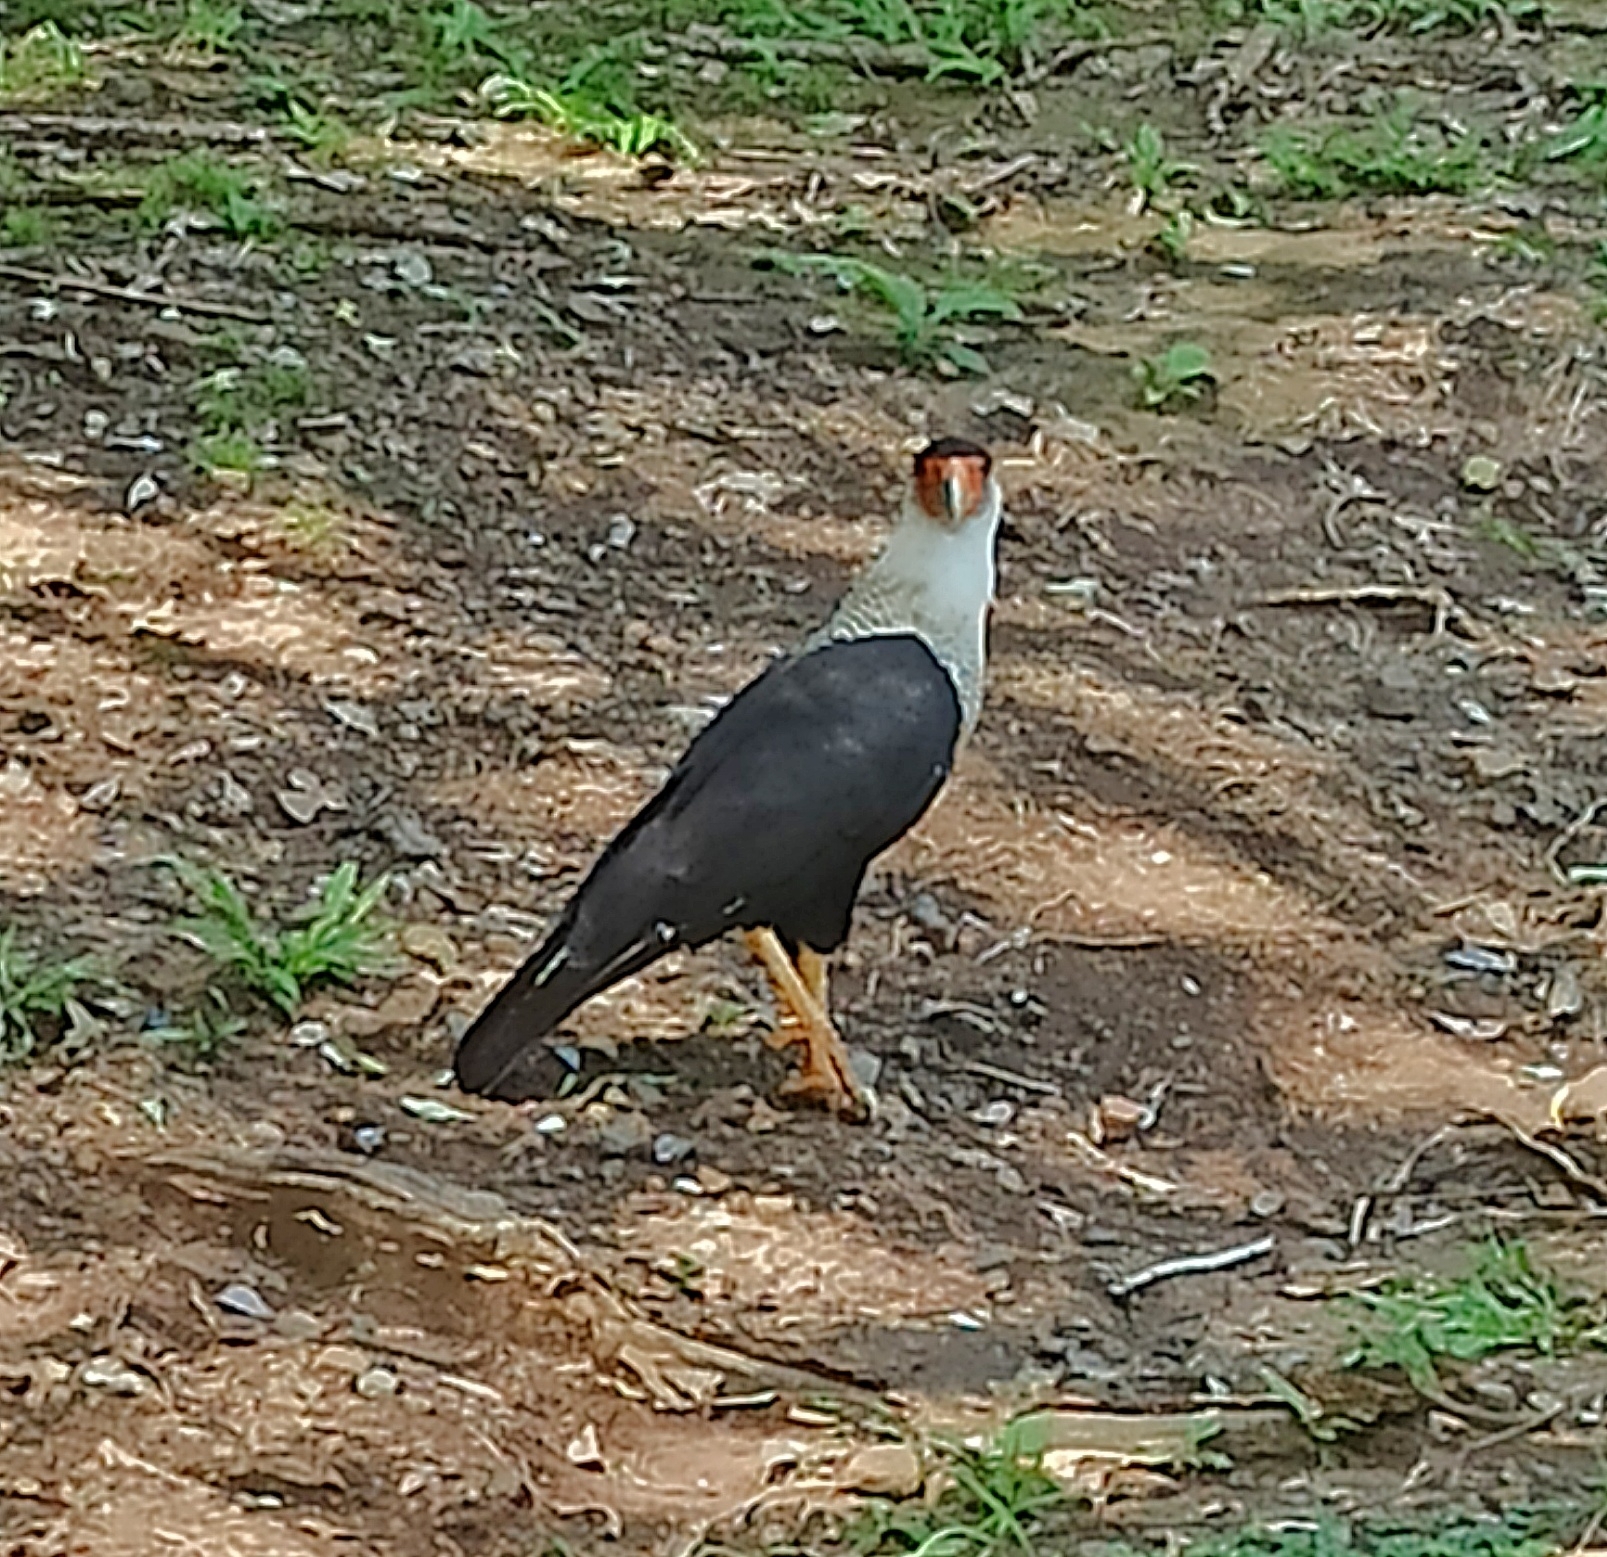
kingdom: Animalia
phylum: Chordata
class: Aves
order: Falconiformes
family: Falconidae
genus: Caracara
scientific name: Caracara plancus
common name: Southern caracara
